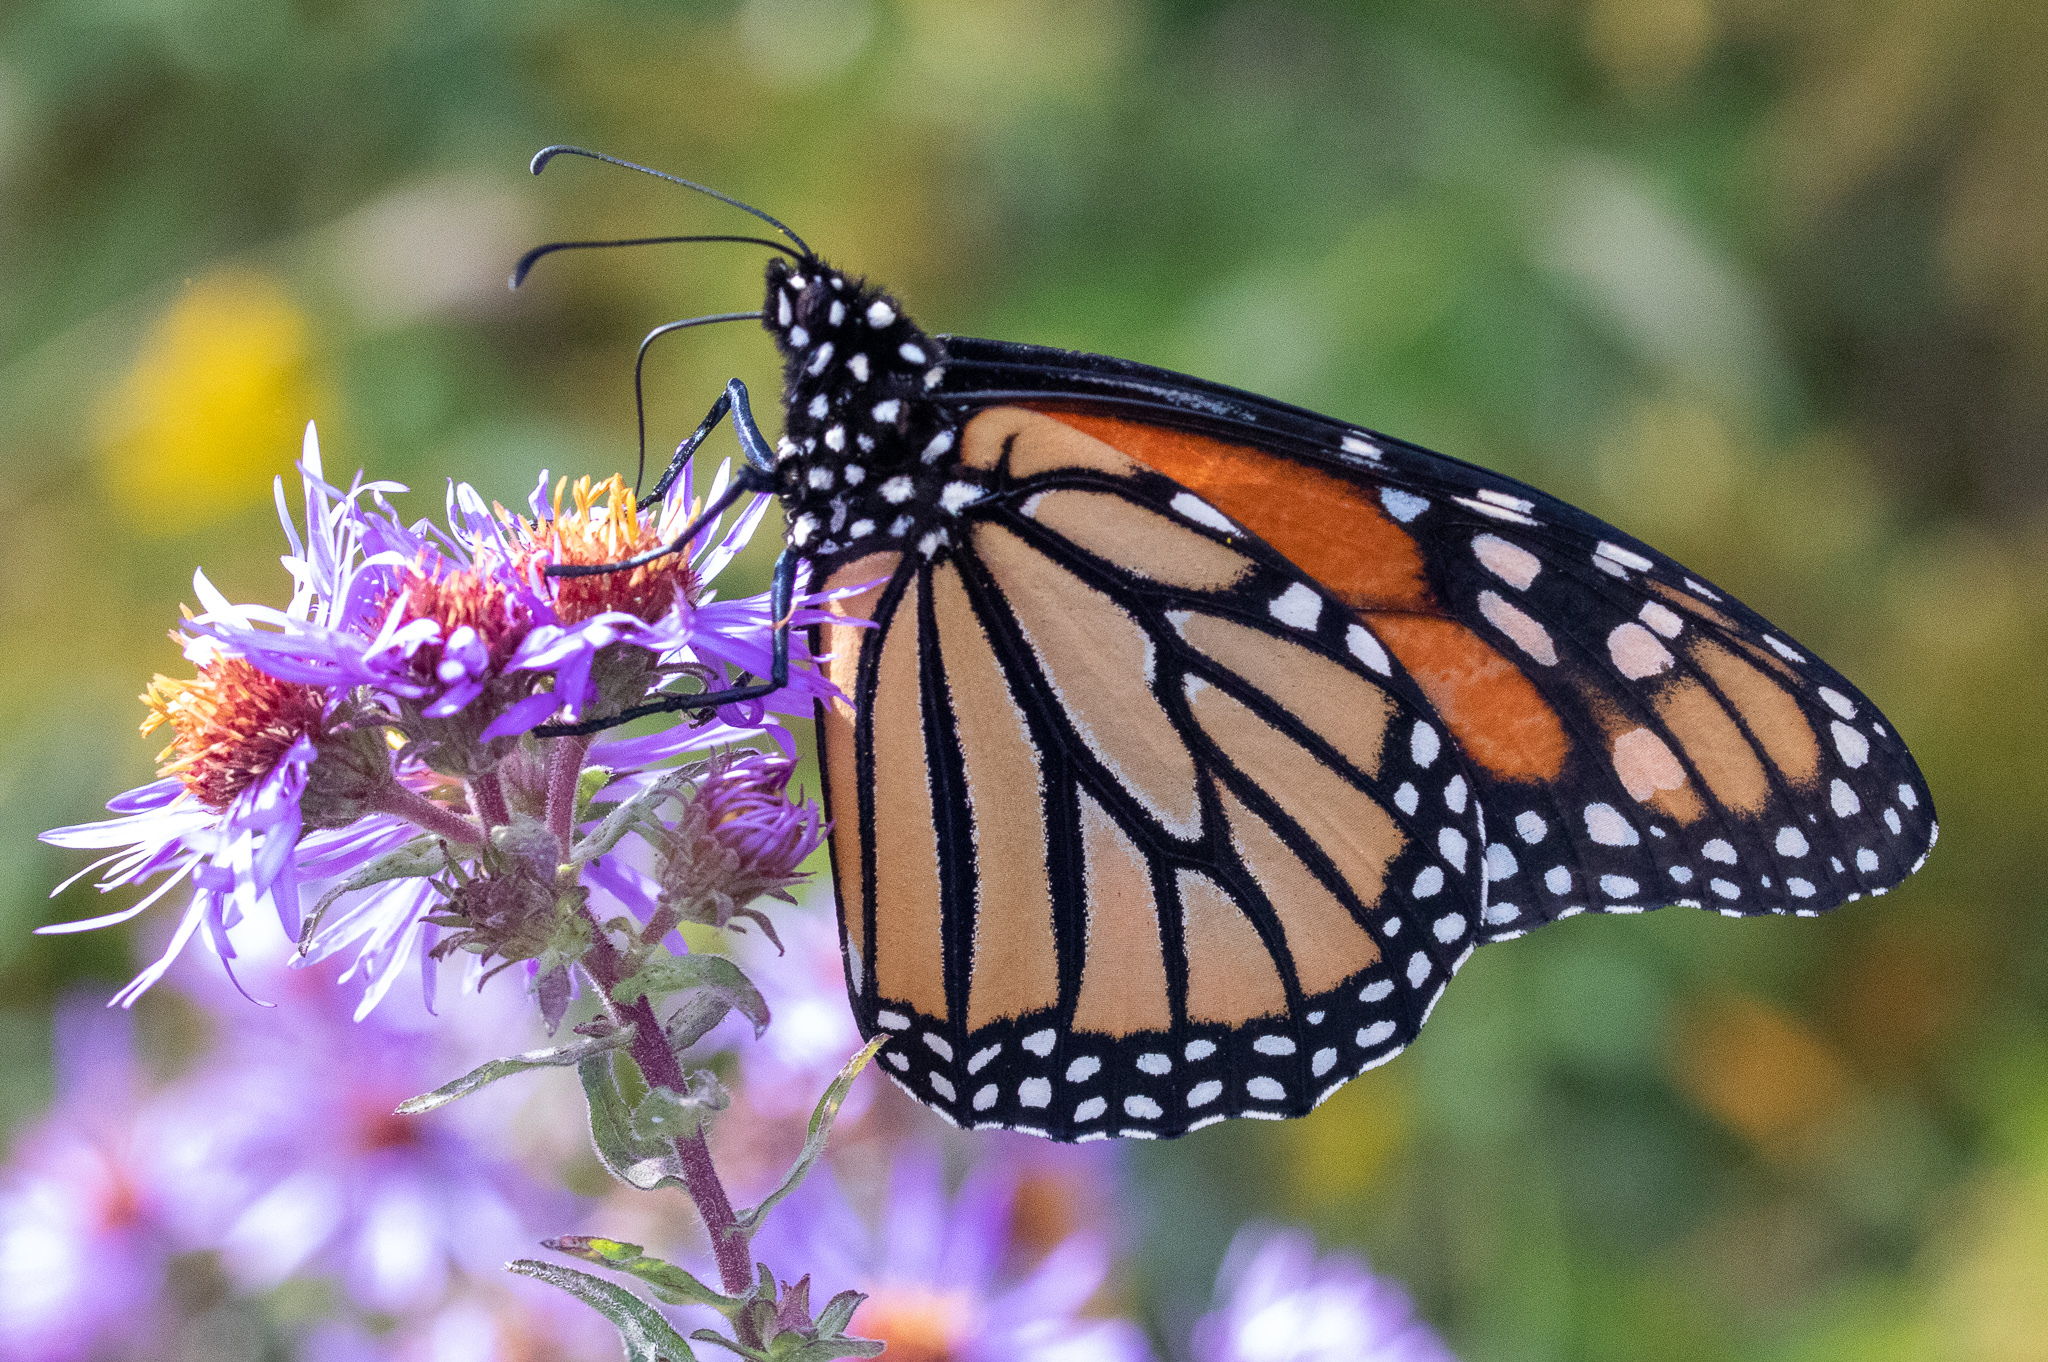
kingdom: Animalia
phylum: Arthropoda
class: Insecta
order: Lepidoptera
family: Nymphalidae
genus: Danaus
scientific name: Danaus plexippus
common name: Monarch
